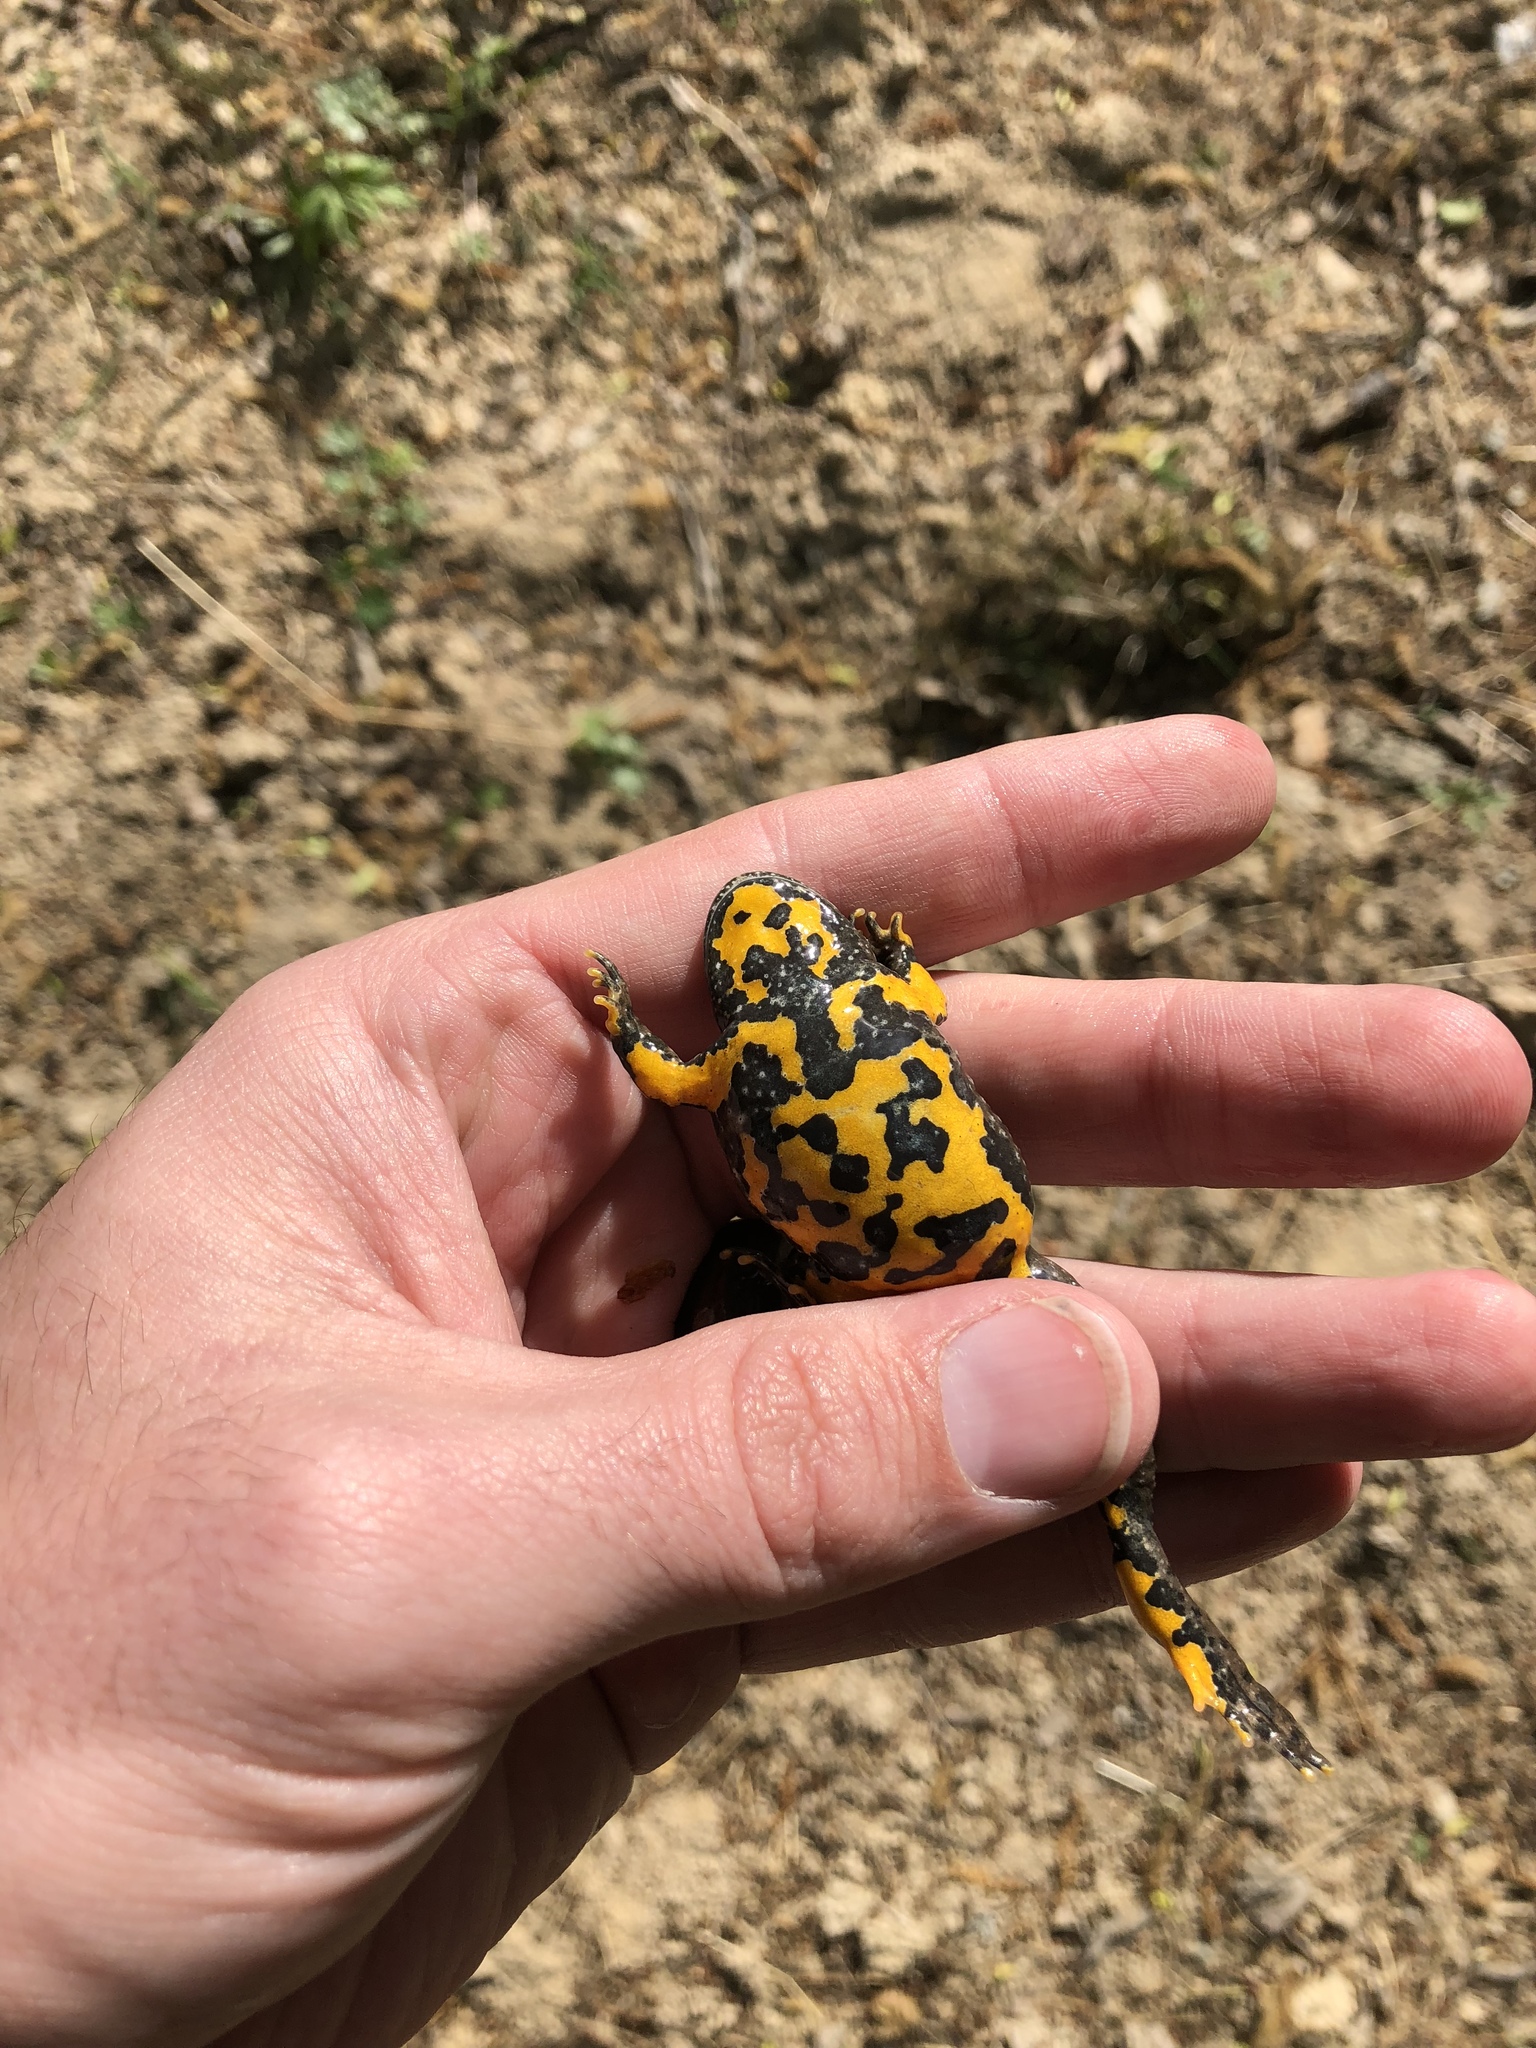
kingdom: Animalia
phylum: Chordata
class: Amphibia
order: Anura
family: Bombinatoridae
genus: Bombina
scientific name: Bombina variegata
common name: Yellow-bellied toad
